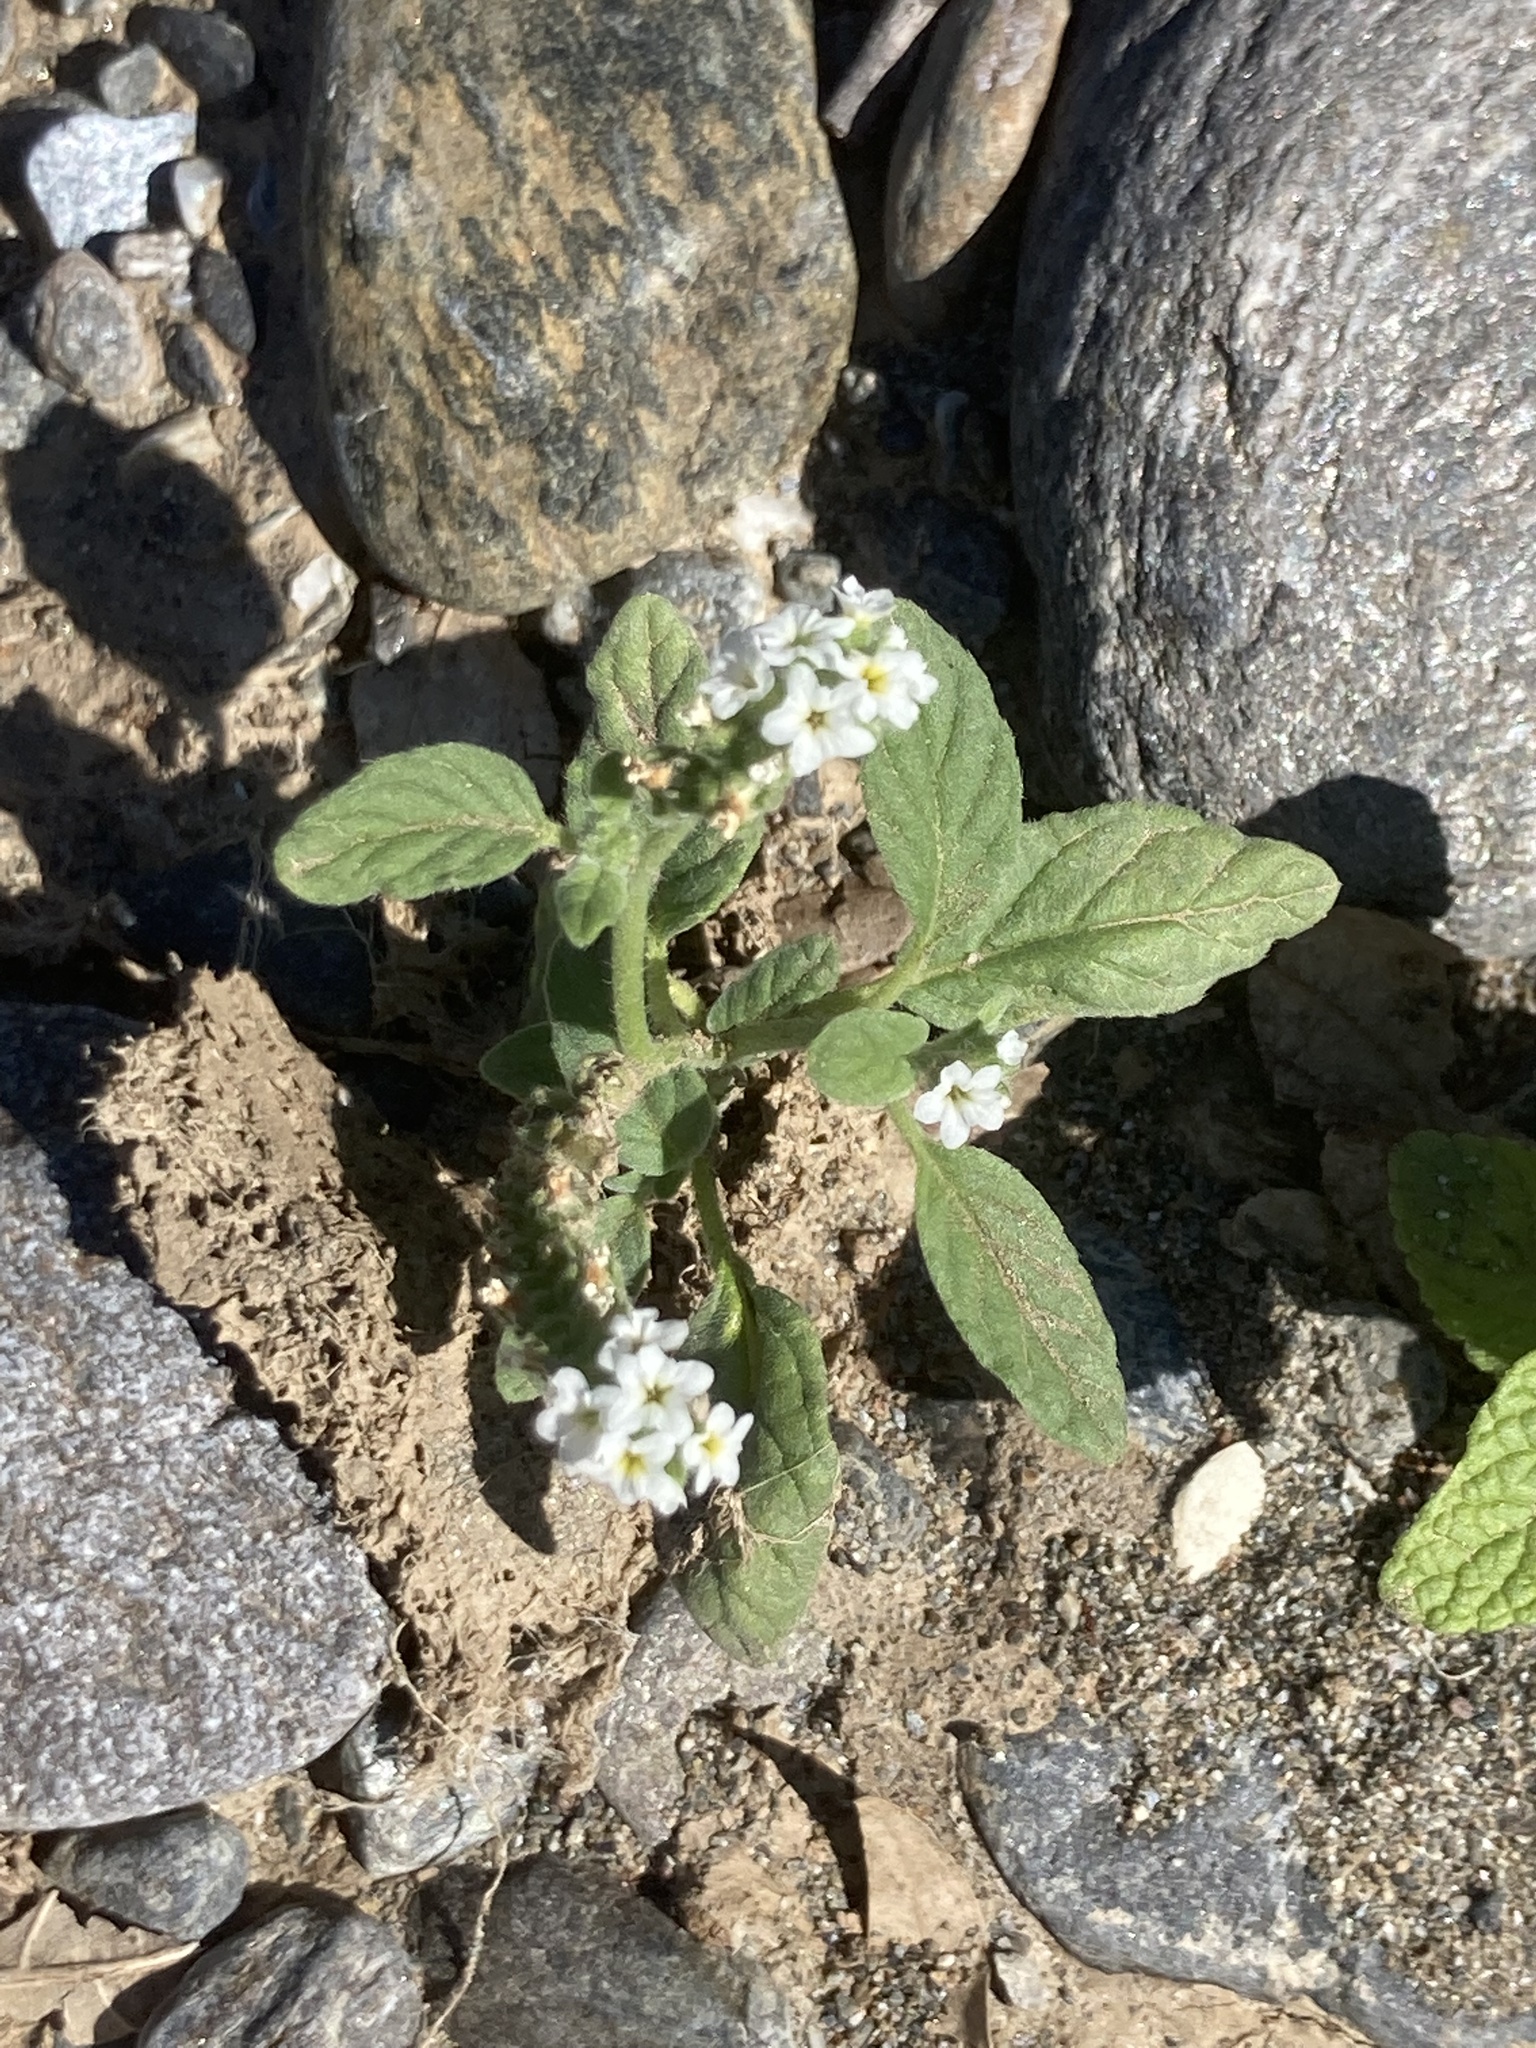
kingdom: Plantae
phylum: Tracheophyta
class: Magnoliopsida
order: Boraginales
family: Heliotropiaceae
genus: Heliotropium
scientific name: Heliotropium europaeum
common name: European heliotrope
